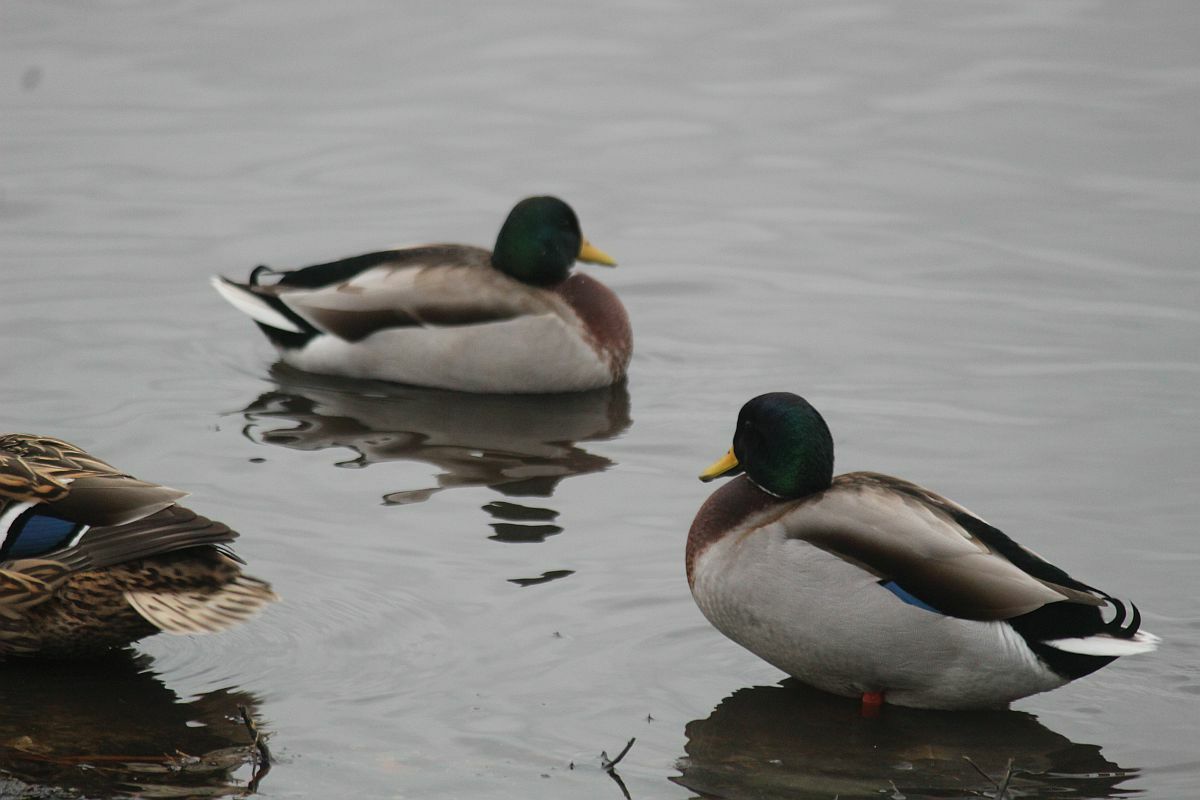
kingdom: Animalia
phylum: Chordata
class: Aves
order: Anseriformes
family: Anatidae
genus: Anas
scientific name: Anas platyrhynchos
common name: Mallard
